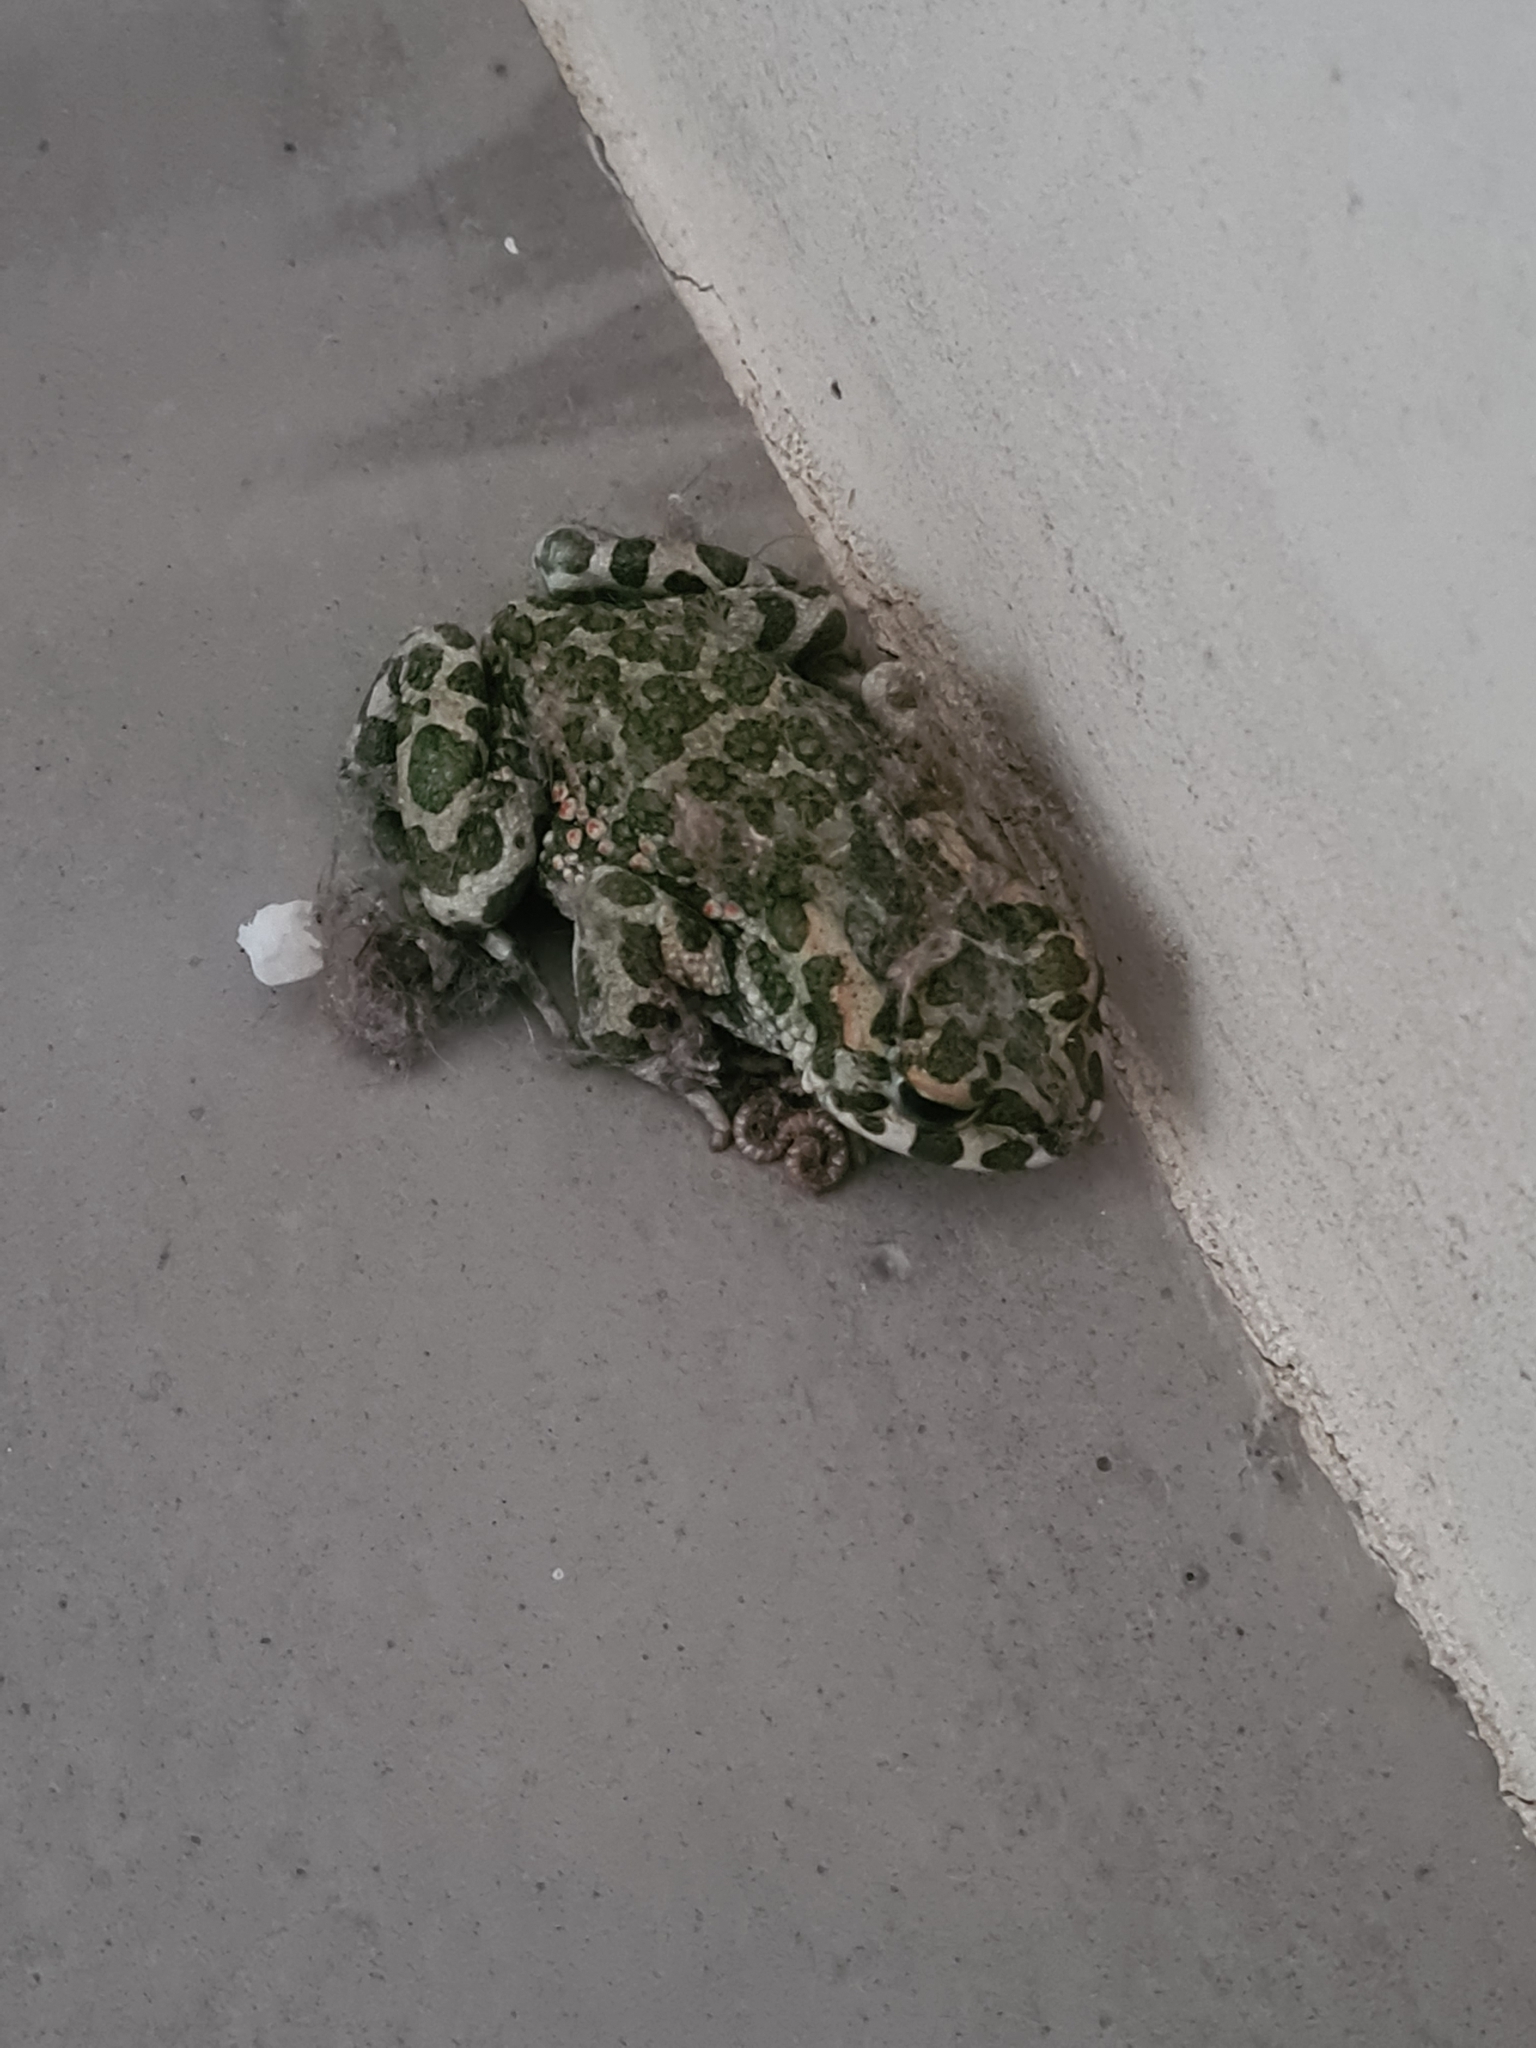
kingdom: Animalia
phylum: Chordata
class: Amphibia
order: Anura
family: Bufonidae
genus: Bufotes
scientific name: Bufotes viridis
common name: European green toad
